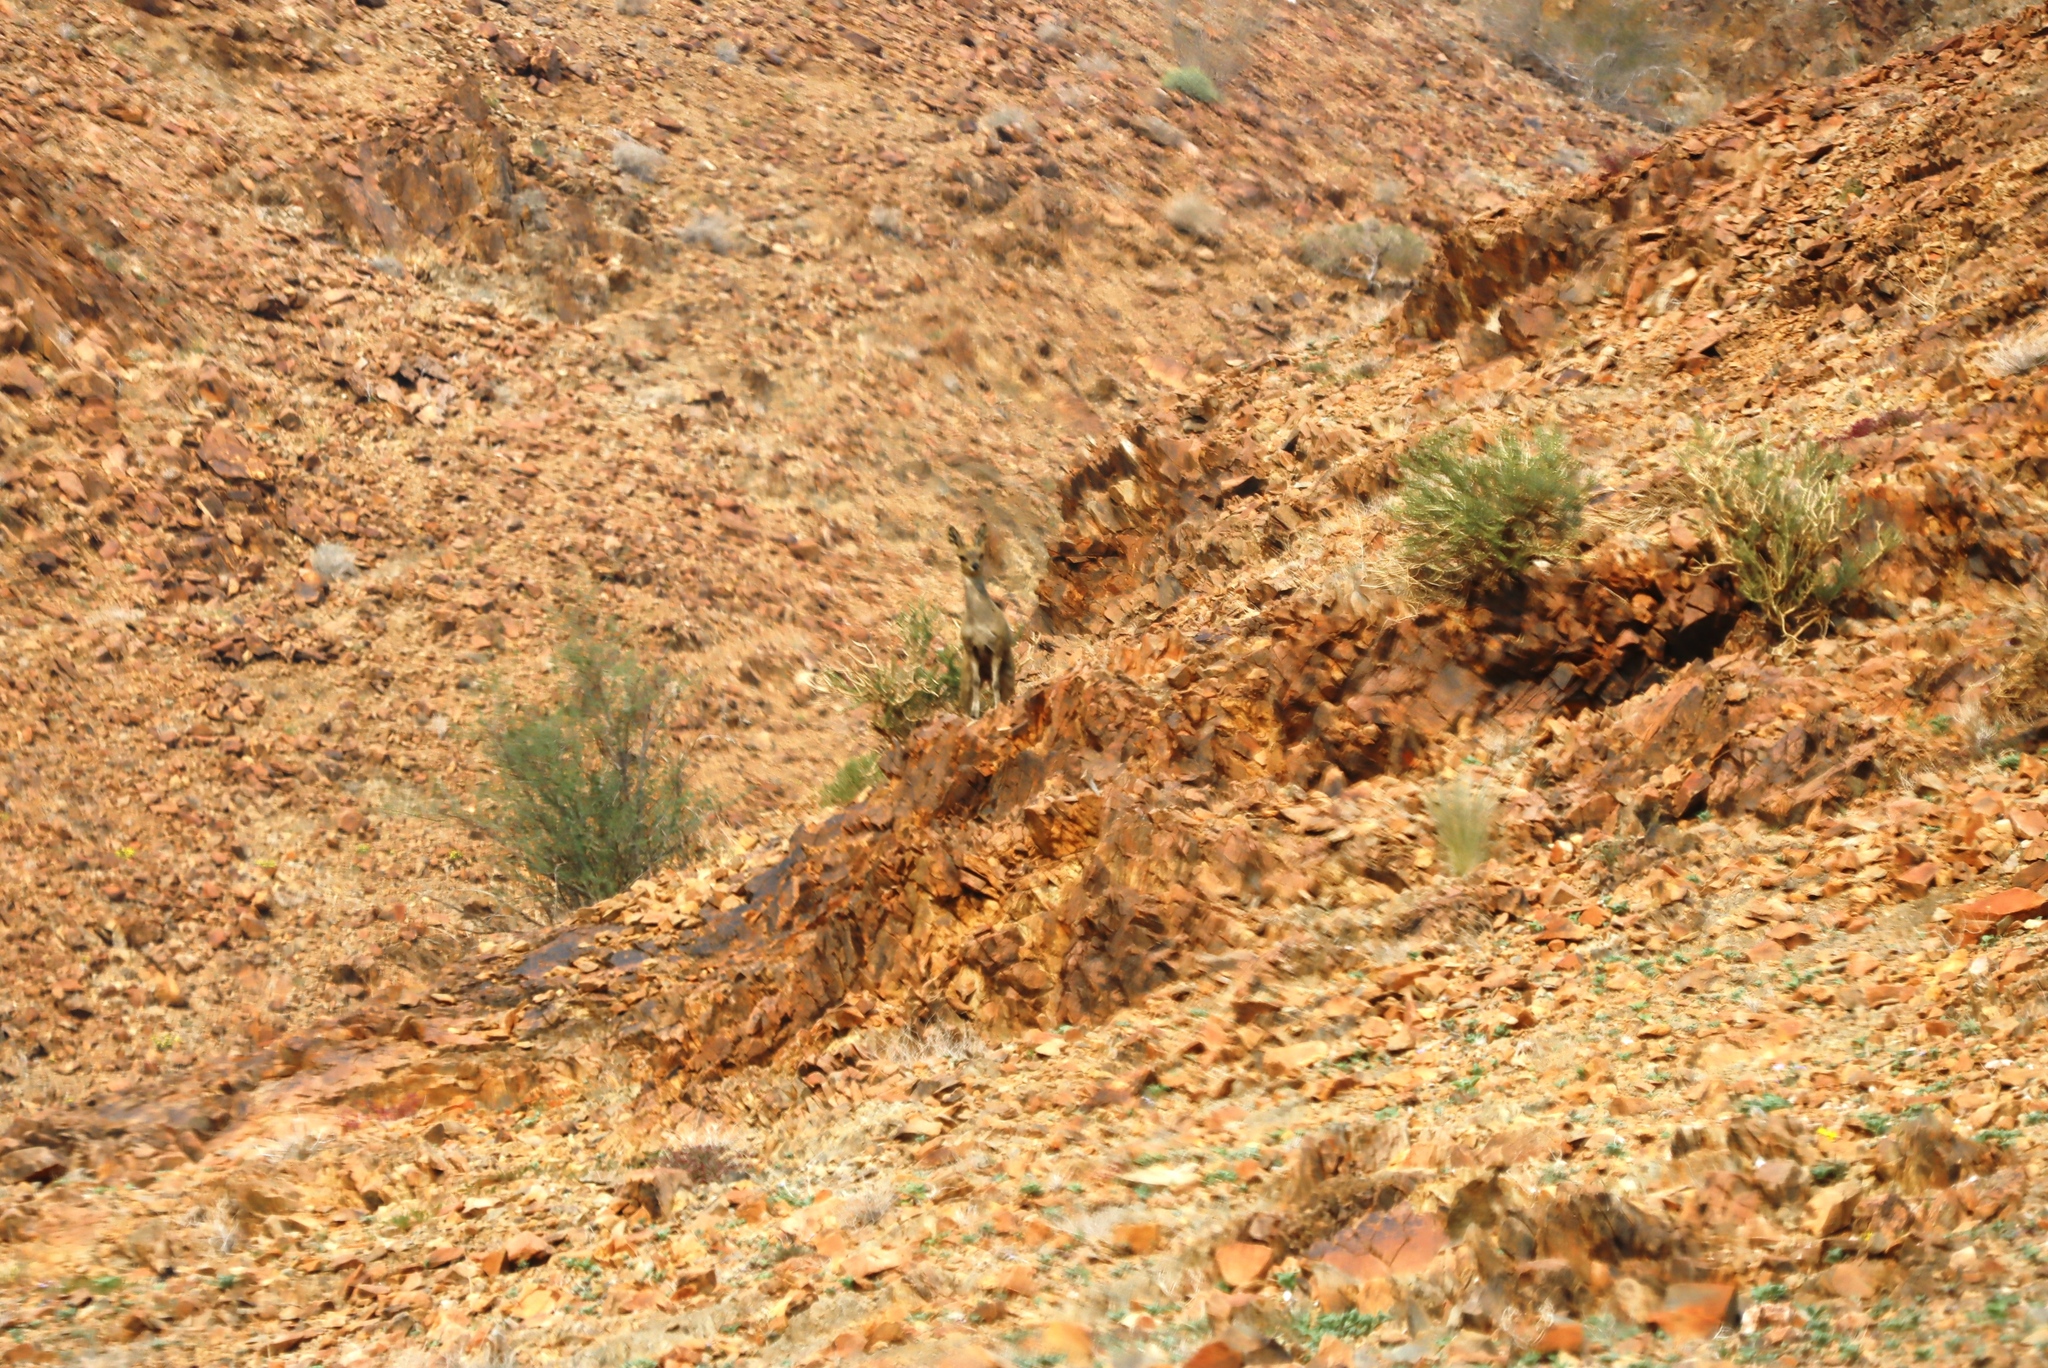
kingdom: Animalia
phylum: Chordata
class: Mammalia
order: Artiodactyla
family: Bovidae
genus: Oreotragus
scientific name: Oreotragus oreotragus
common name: Klipspringer
